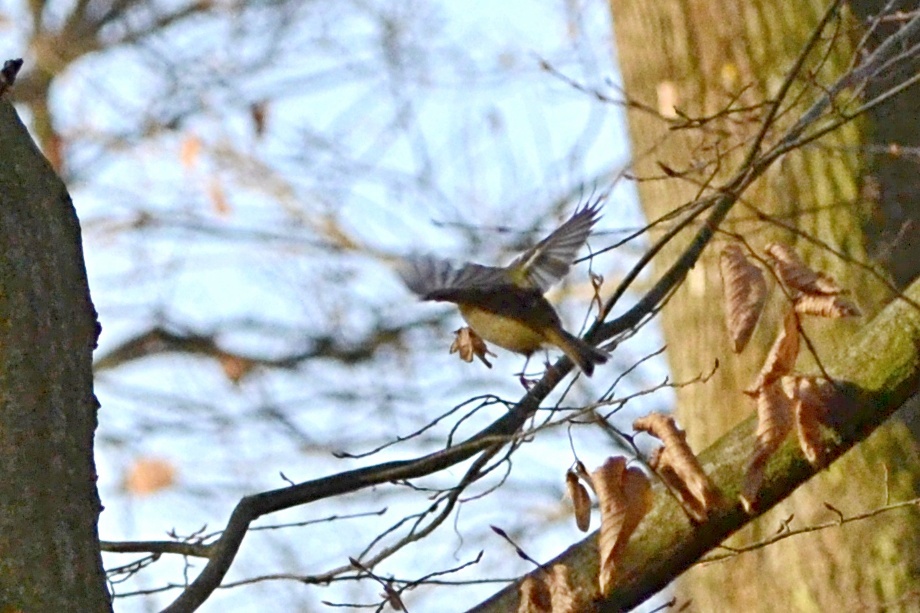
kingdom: Animalia
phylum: Chordata
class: Aves
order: Passeriformes
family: Regulidae
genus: Regulus
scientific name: Regulus regulus
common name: Goldcrest
